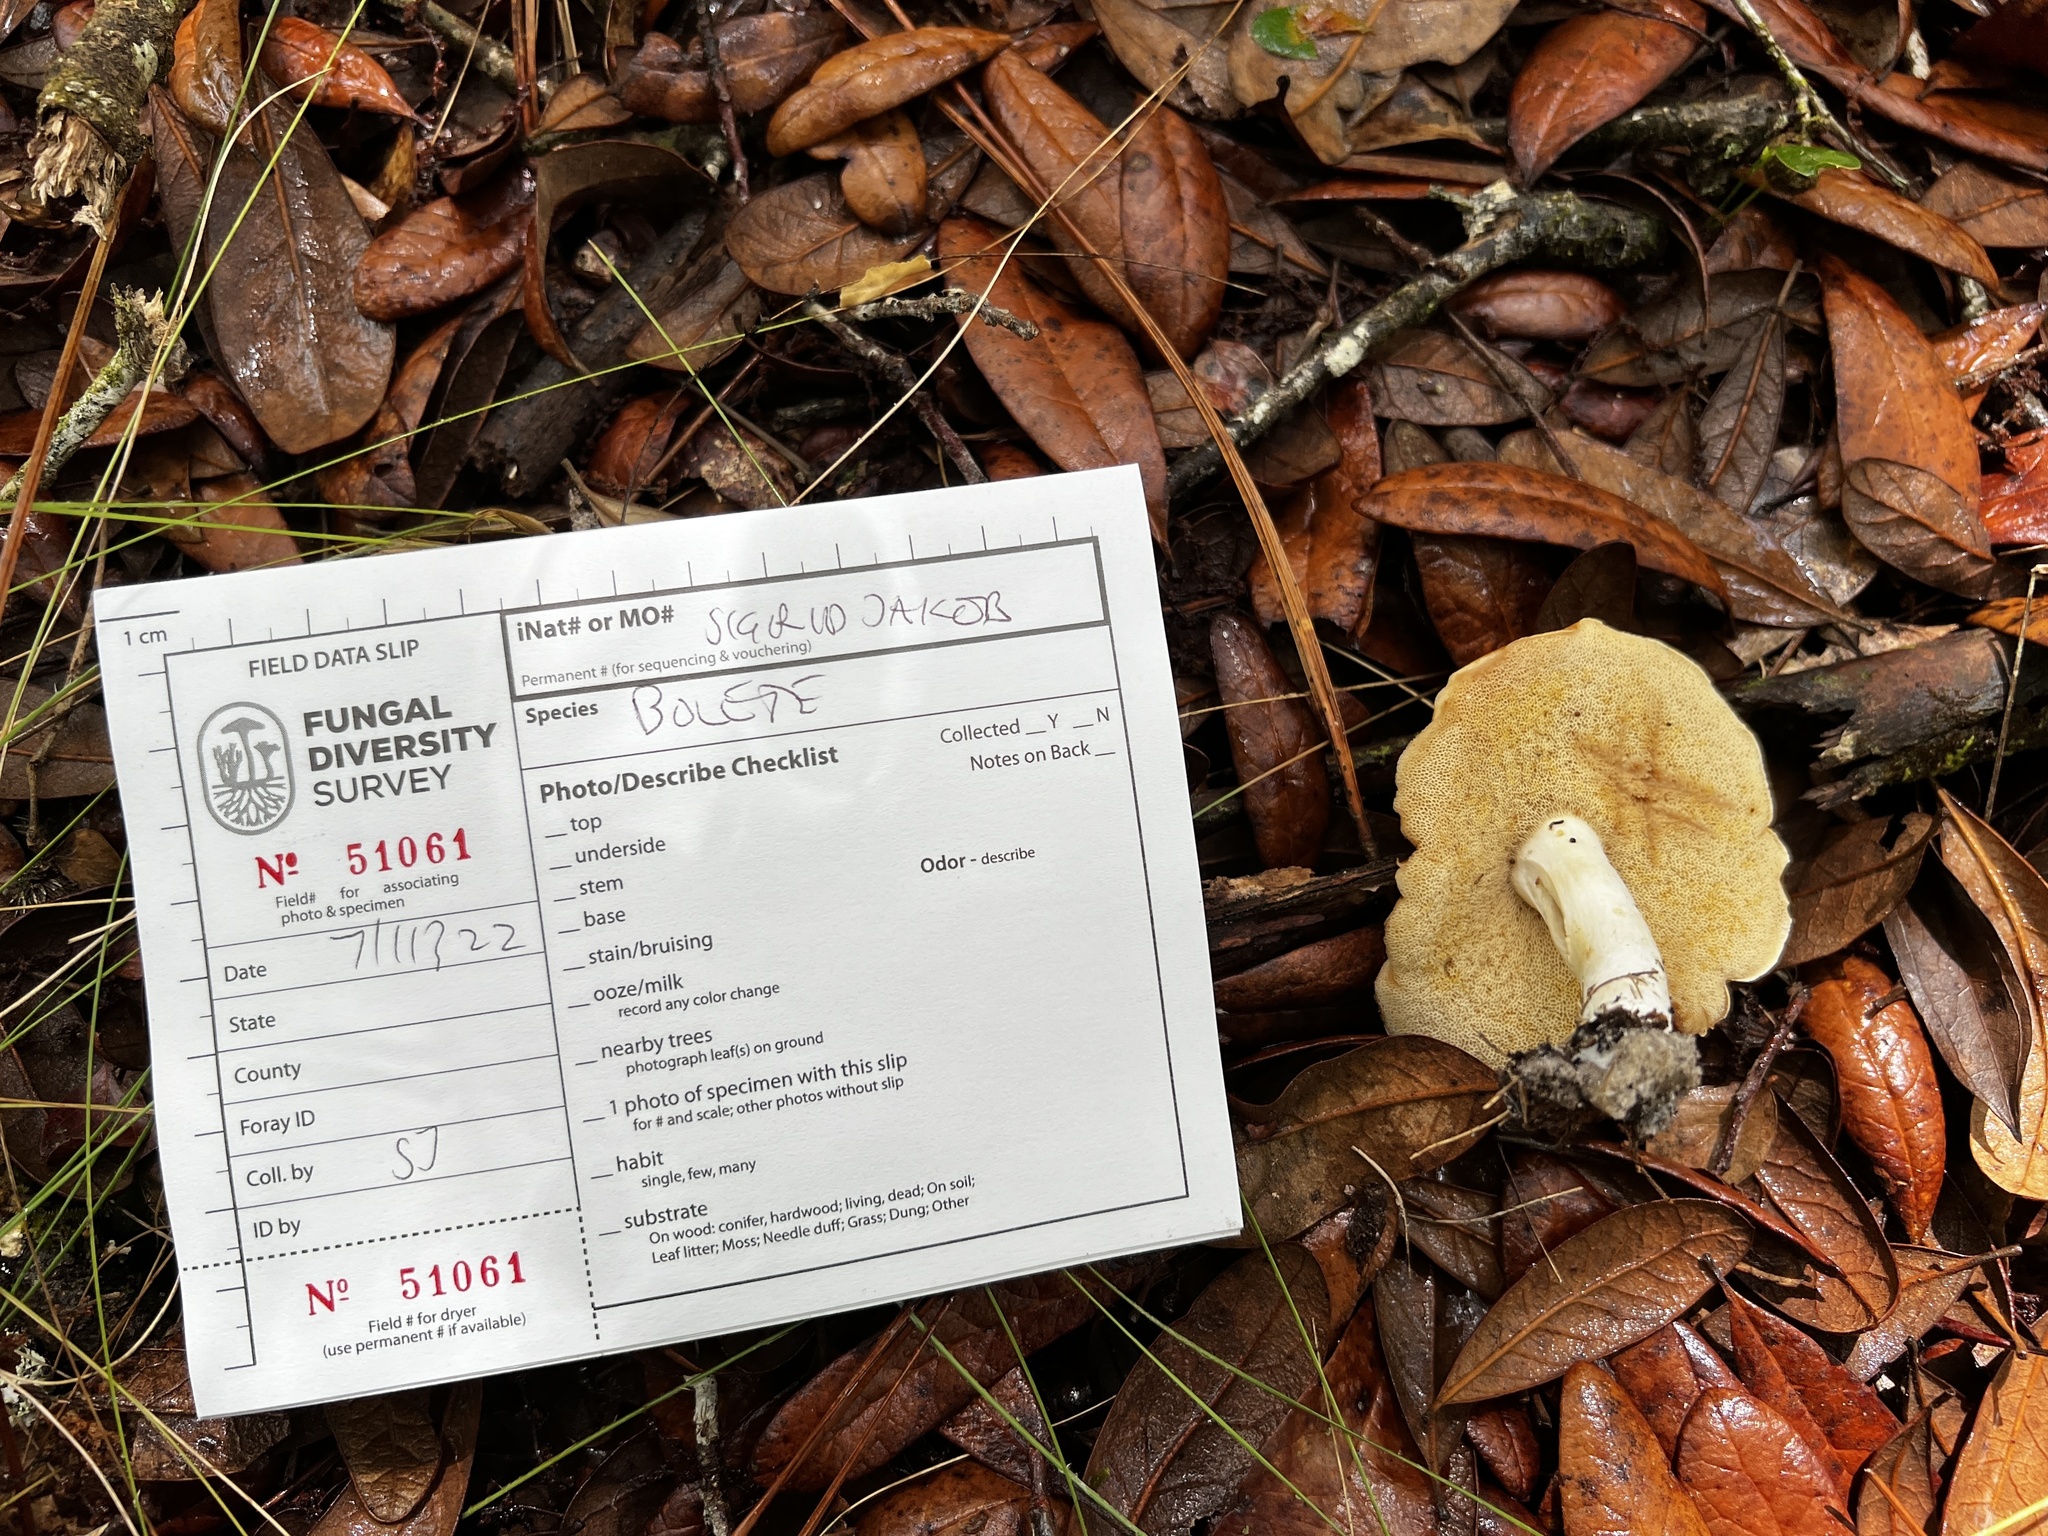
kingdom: Fungi
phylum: Basidiomycota
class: Agaricomycetes
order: Boletales
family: Boletaceae
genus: Xanthoconium
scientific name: Xanthoconium affine
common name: Spotted bolete
